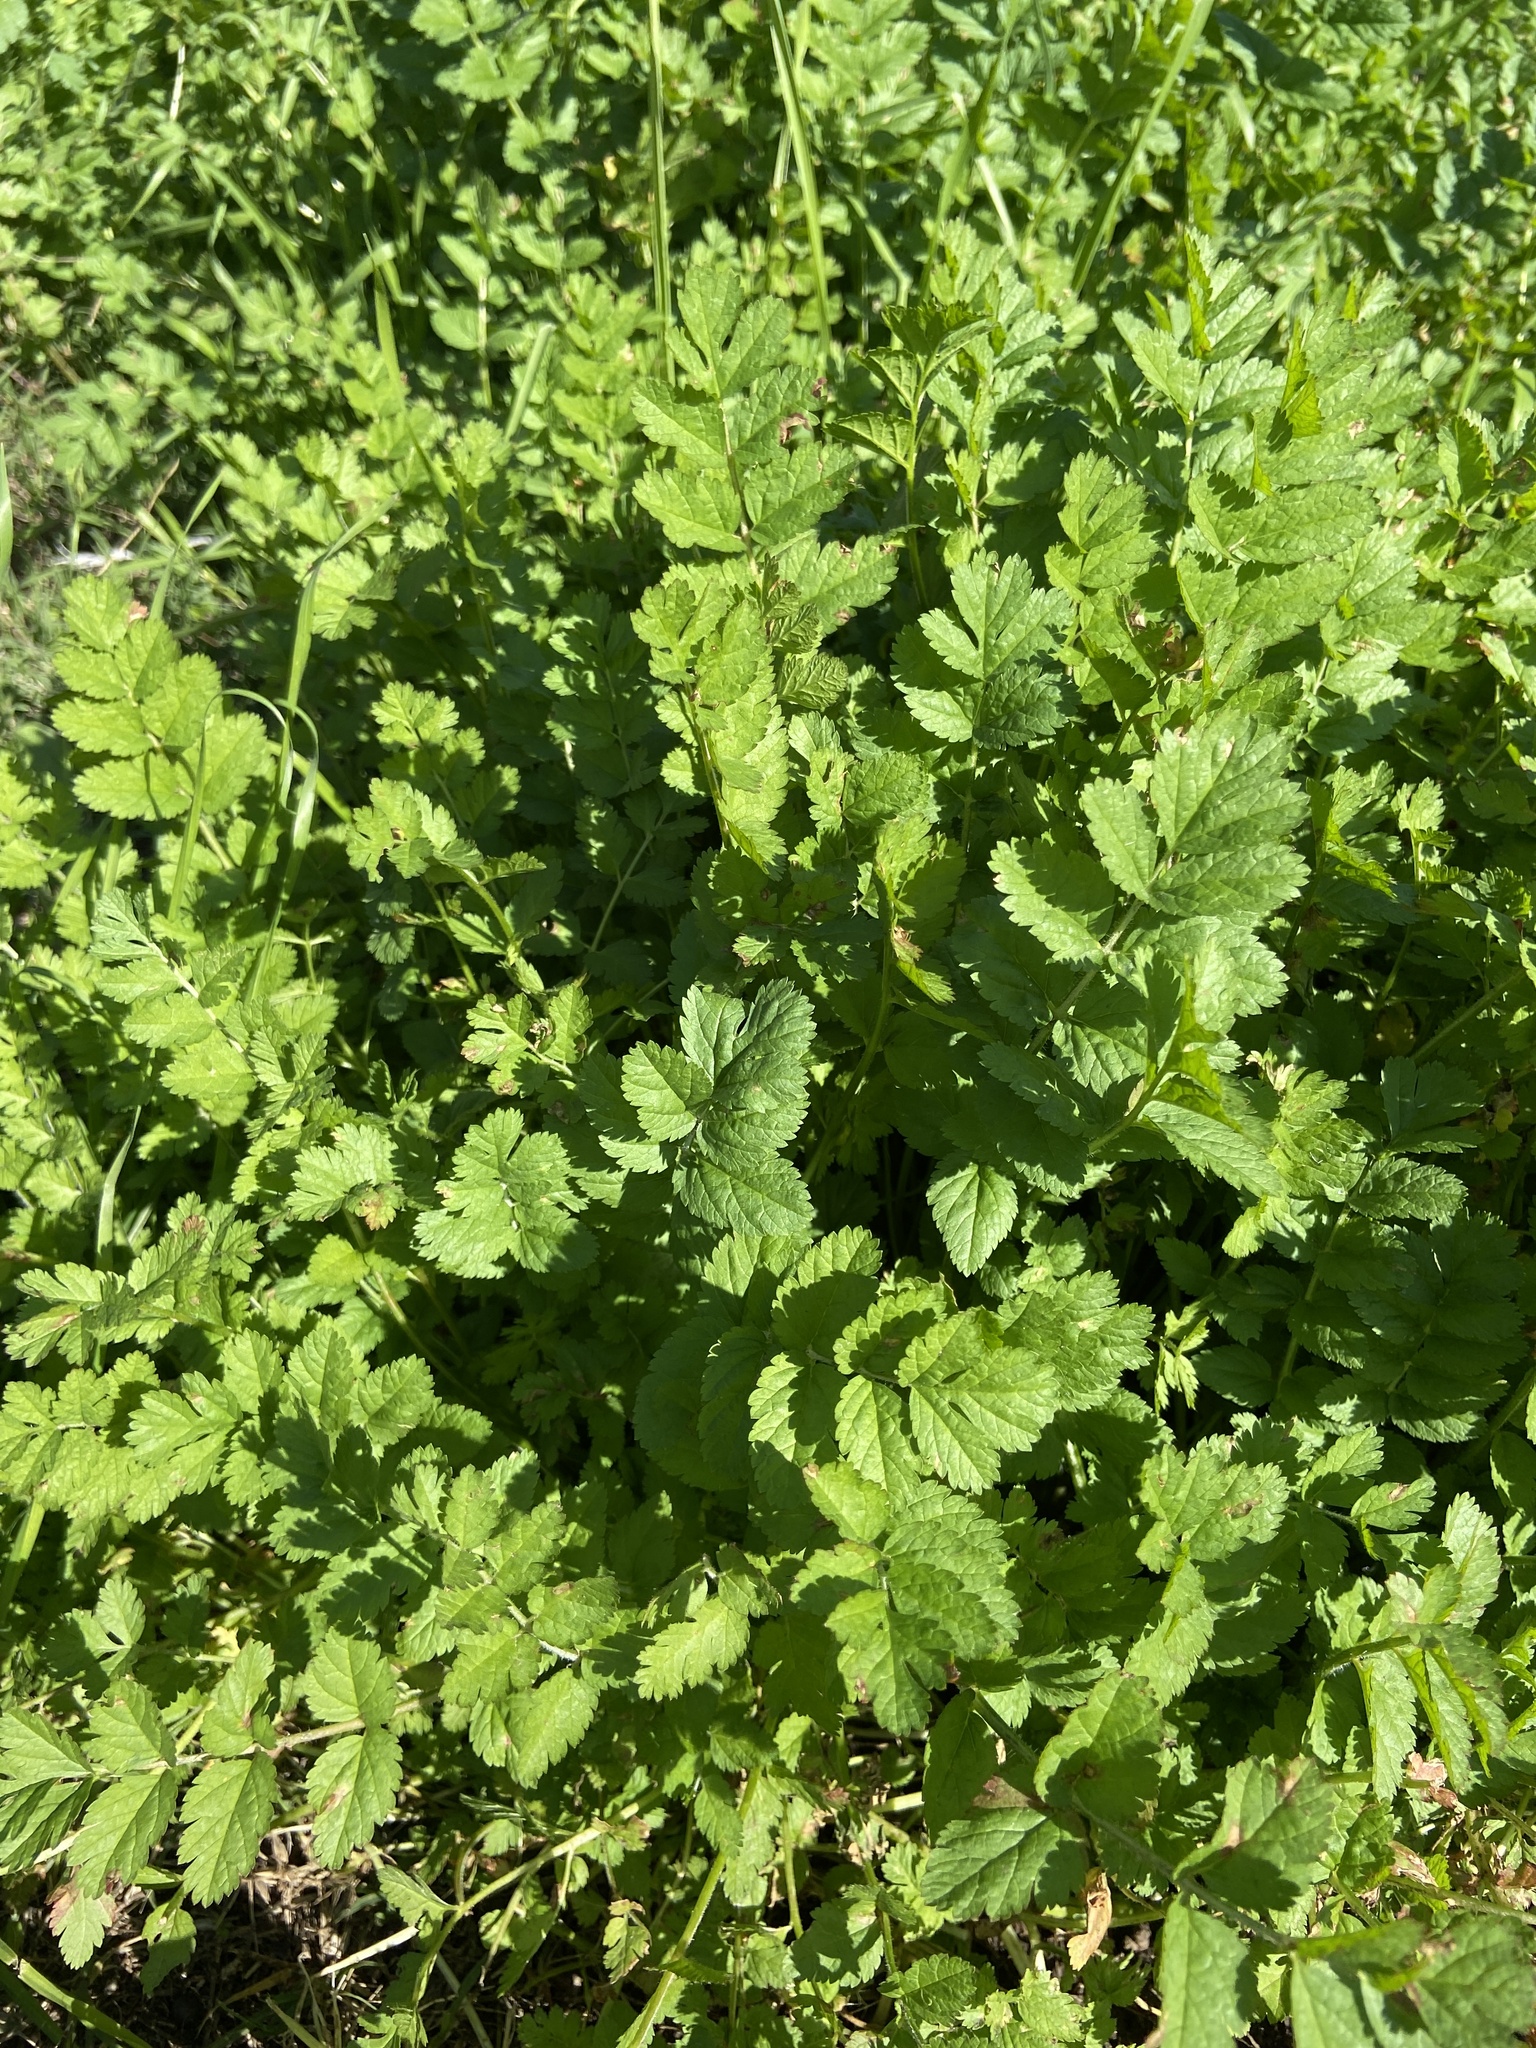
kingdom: Plantae
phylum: Tracheophyta
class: Magnoliopsida
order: Geraniales
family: Geraniaceae
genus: Erodium
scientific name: Erodium moschatum
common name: Musk stork's-bill
